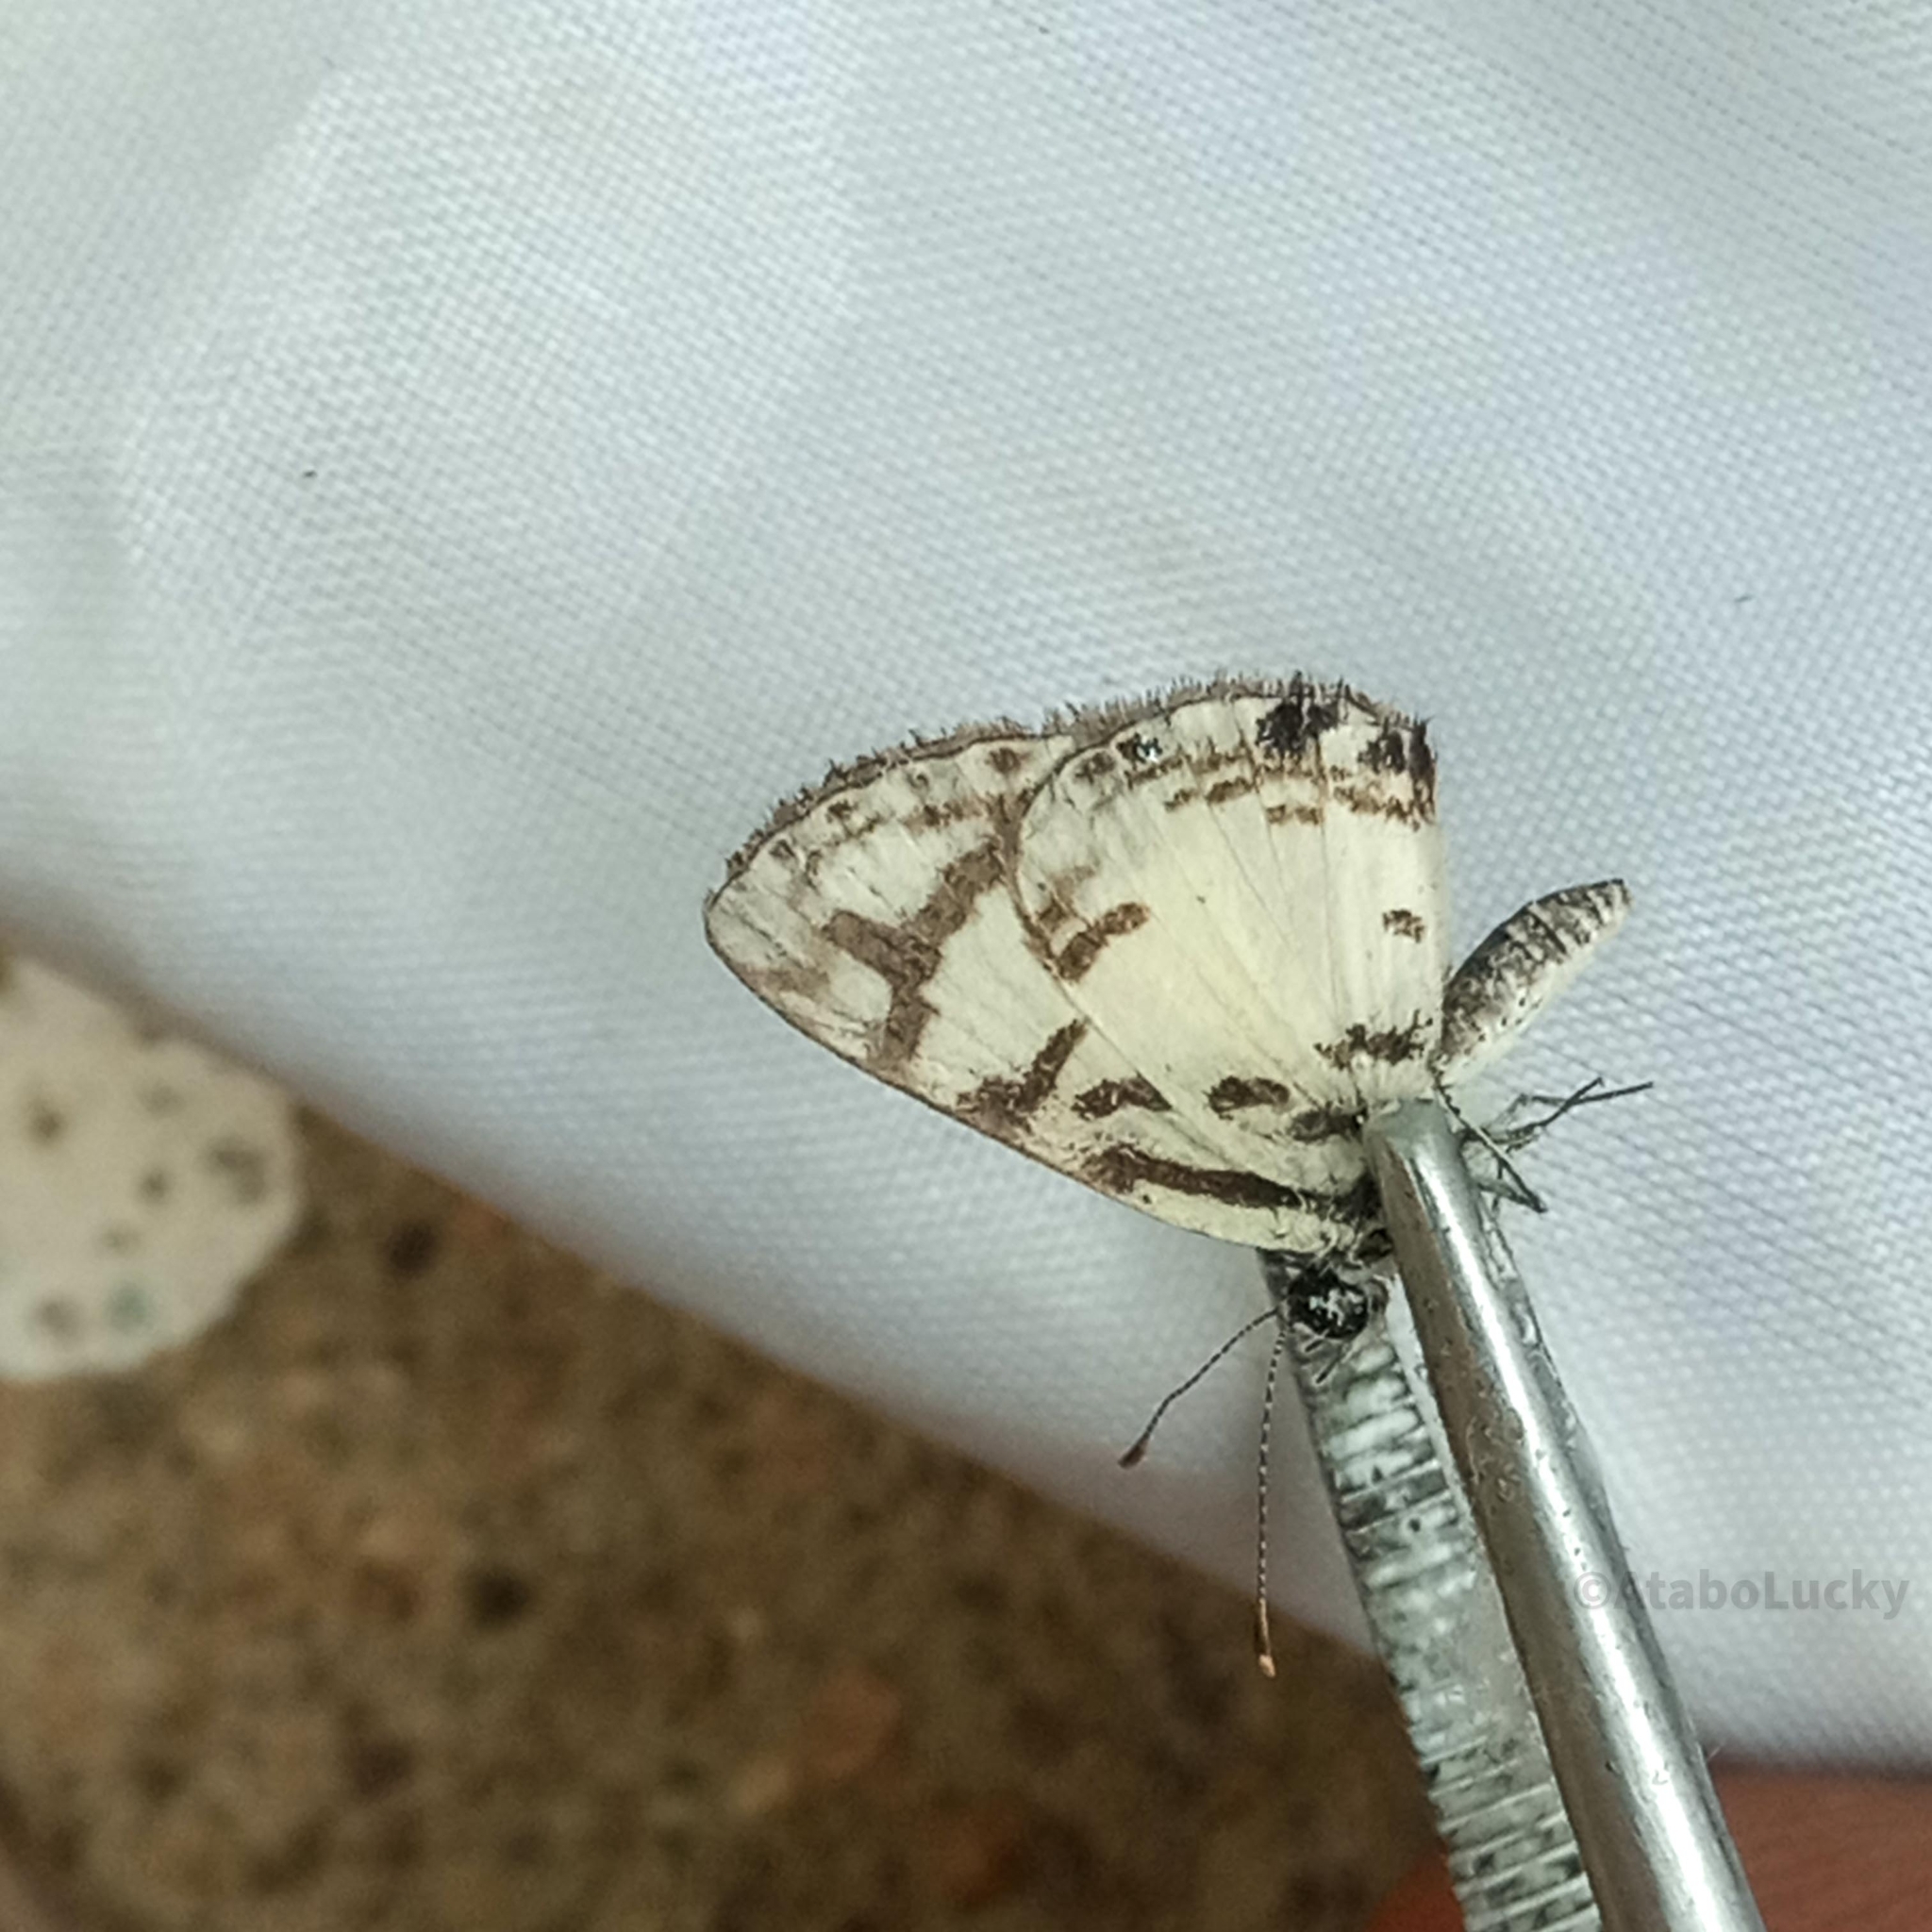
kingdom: Animalia
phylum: Arthropoda
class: Insecta
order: Lepidoptera
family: Lycaenidae
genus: Tuxentius
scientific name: Tuxentius
